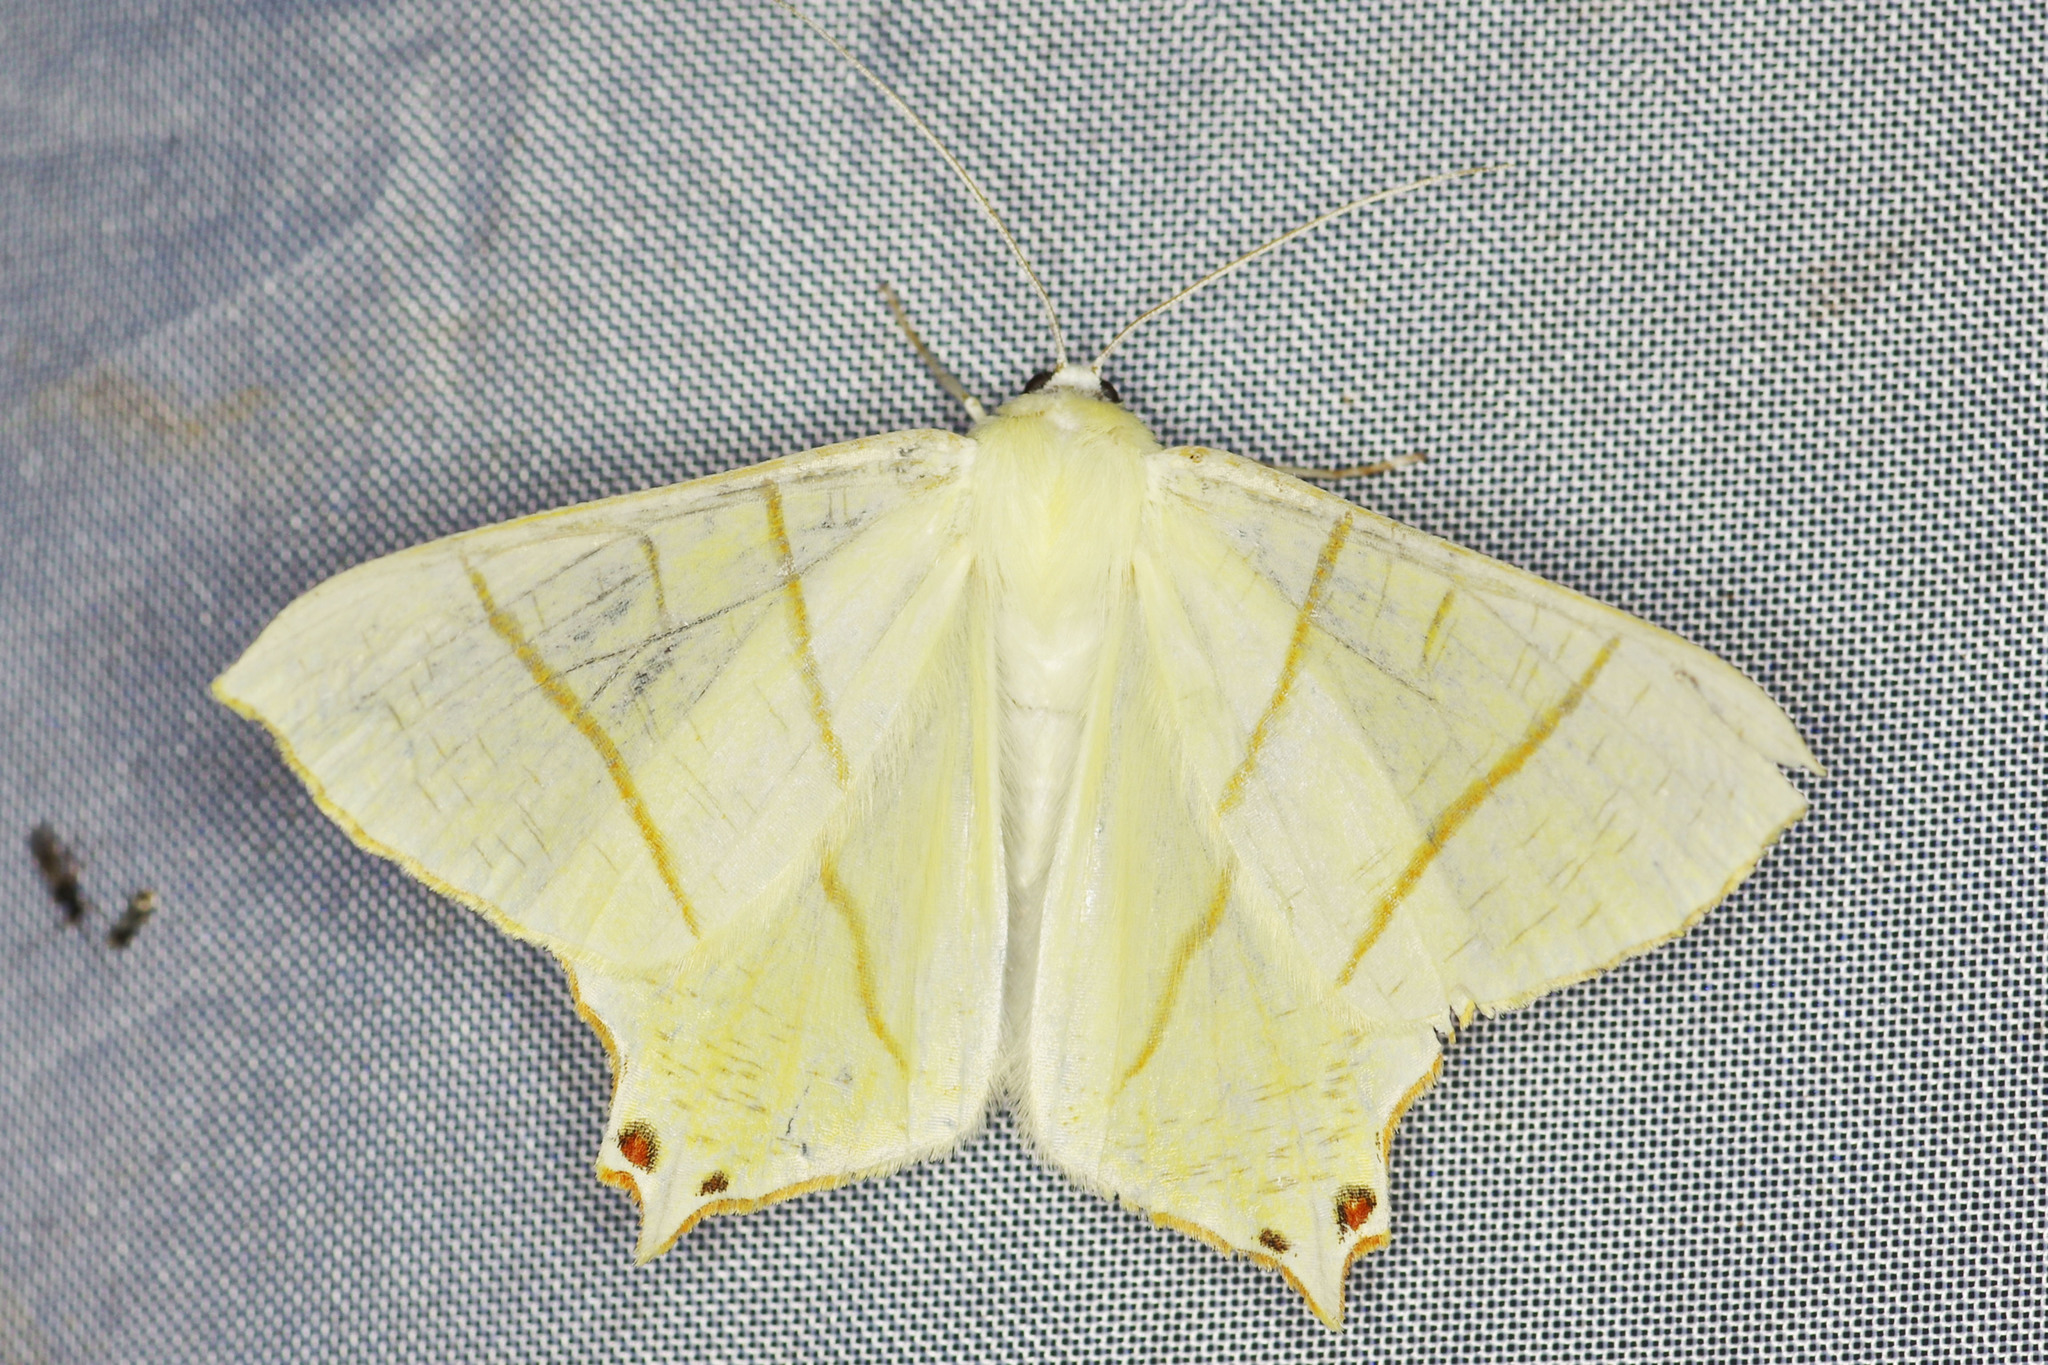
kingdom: Animalia
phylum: Arthropoda
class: Insecta
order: Lepidoptera
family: Geometridae
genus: Ourapteryx
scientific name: Ourapteryx sambucaria
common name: Swallow-tailed moth
